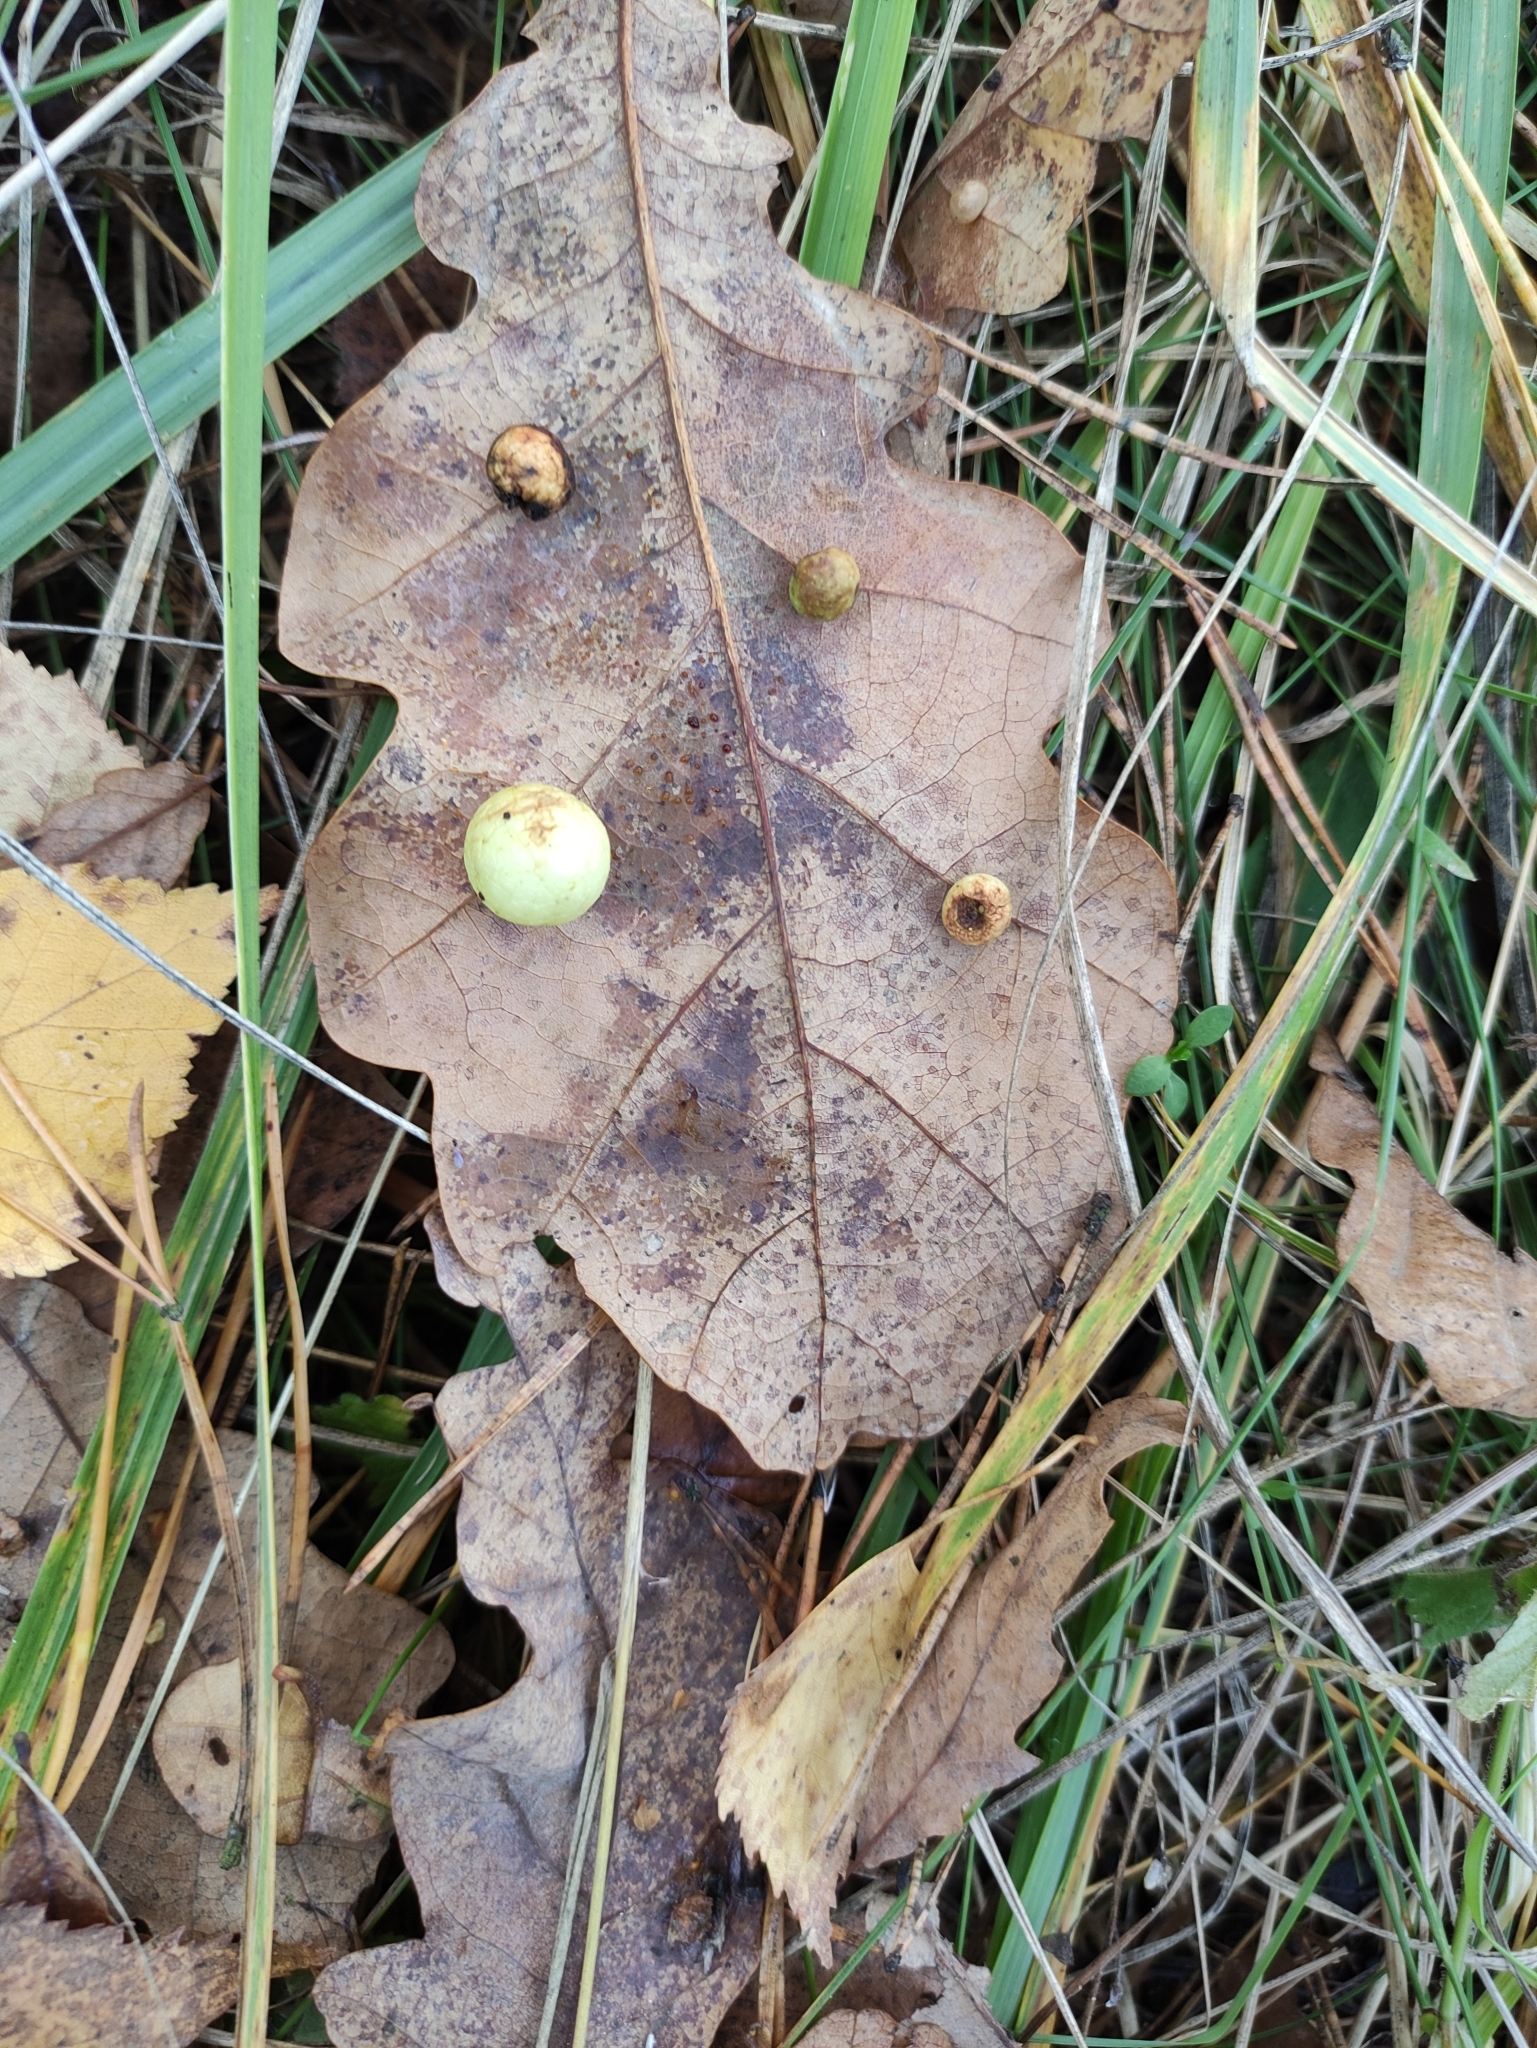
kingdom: Animalia
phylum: Arthropoda
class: Insecta
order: Hymenoptera
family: Cynipidae
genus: Cynips
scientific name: Cynips quercusfolii
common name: Cherry gall
